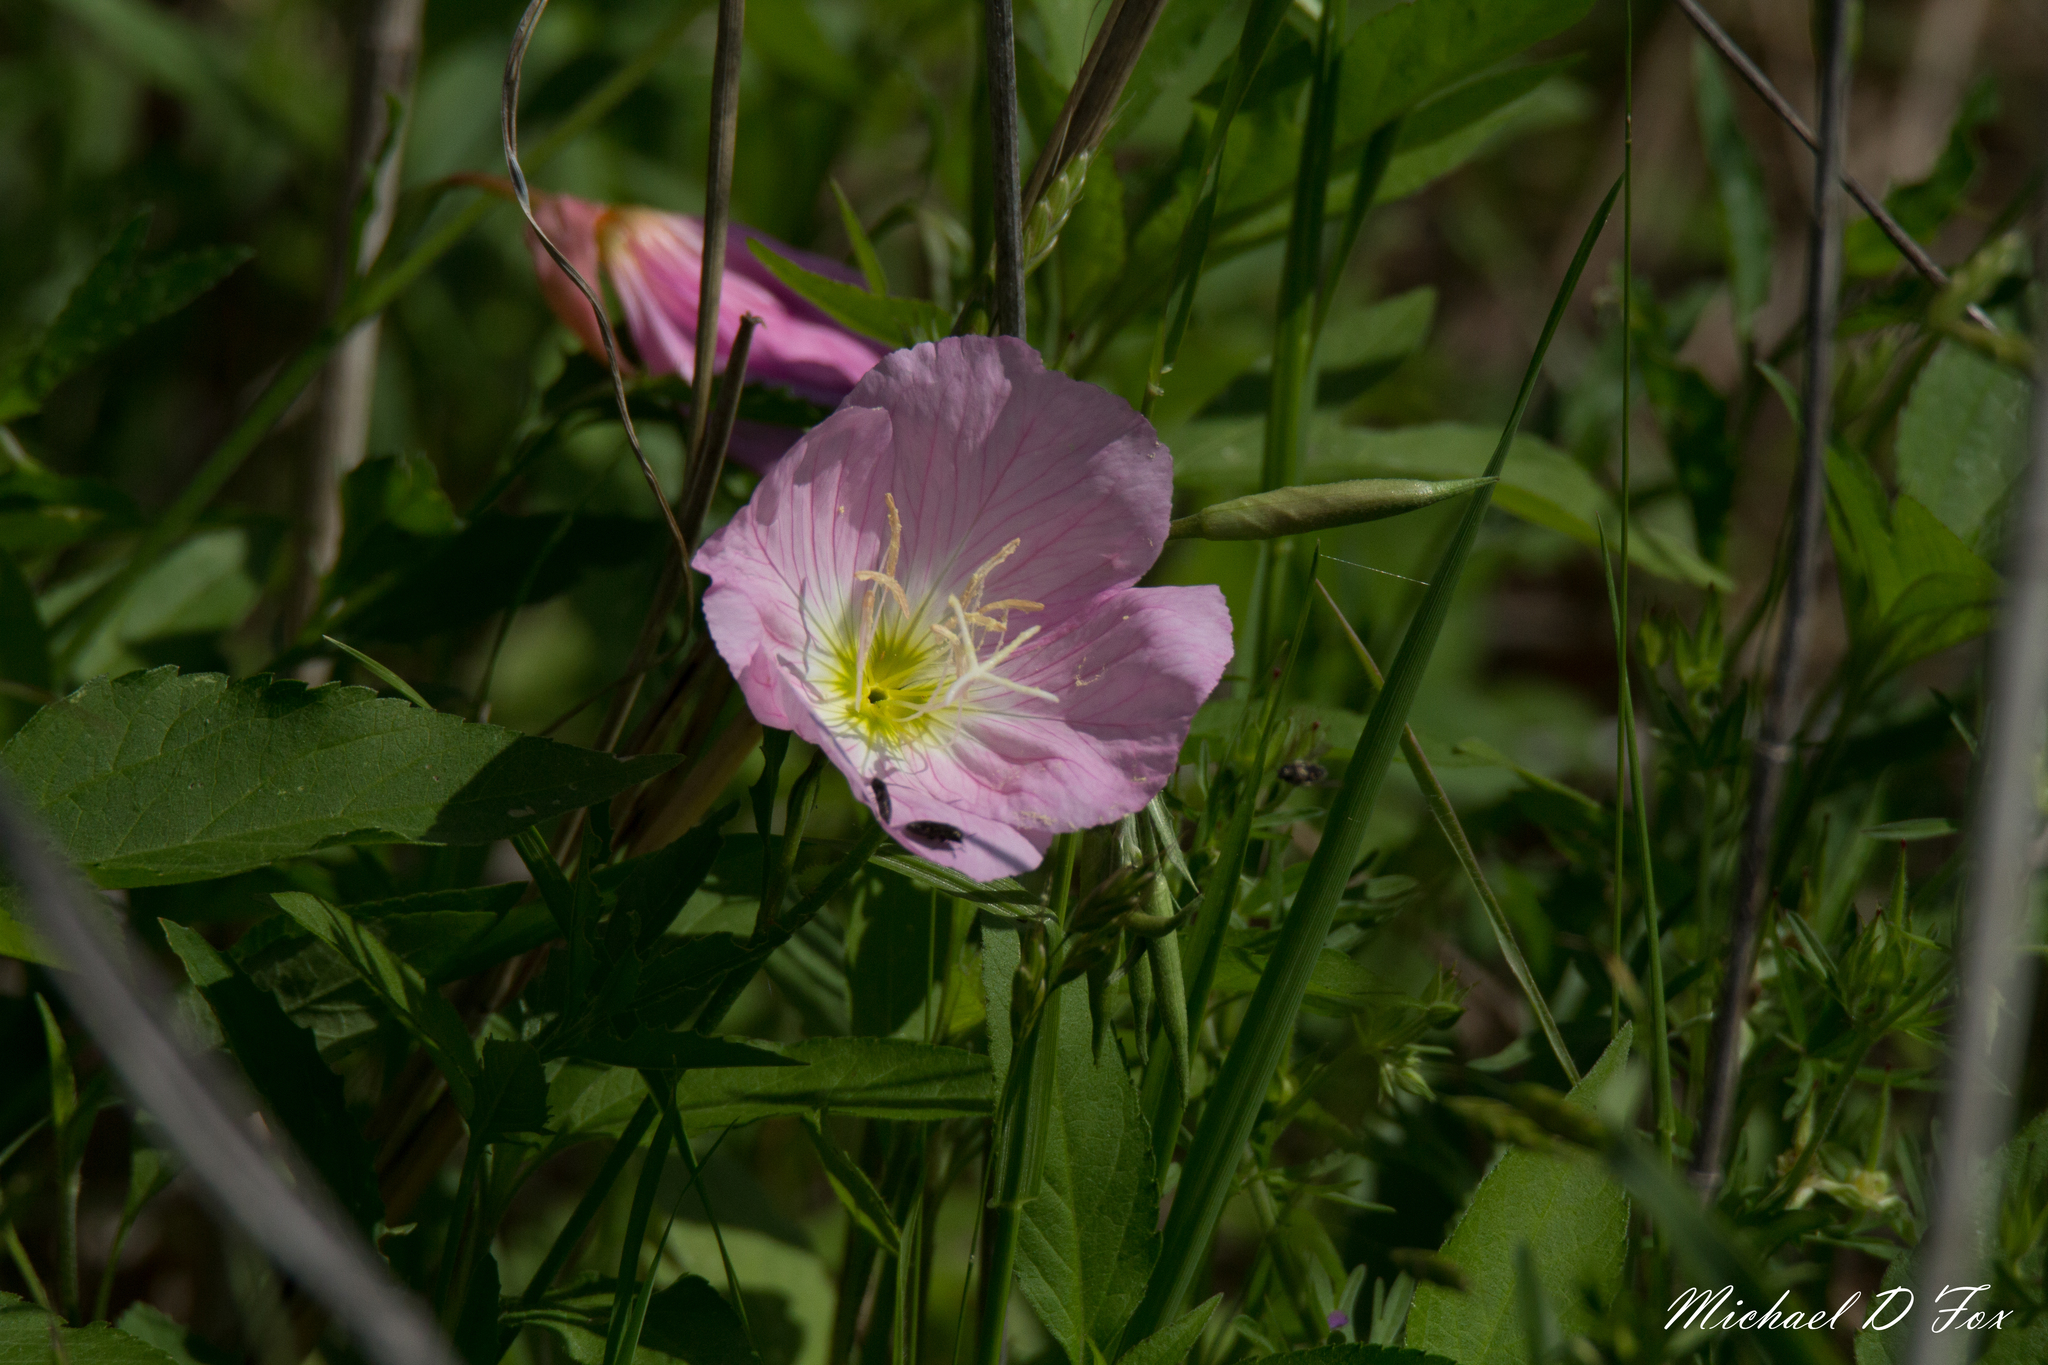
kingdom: Plantae
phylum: Tracheophyta
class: Magnoliopsida
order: Myrtales
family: Onagraceae
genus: Oenothera
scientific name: Oenothera speciosa
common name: White evening-primrose
